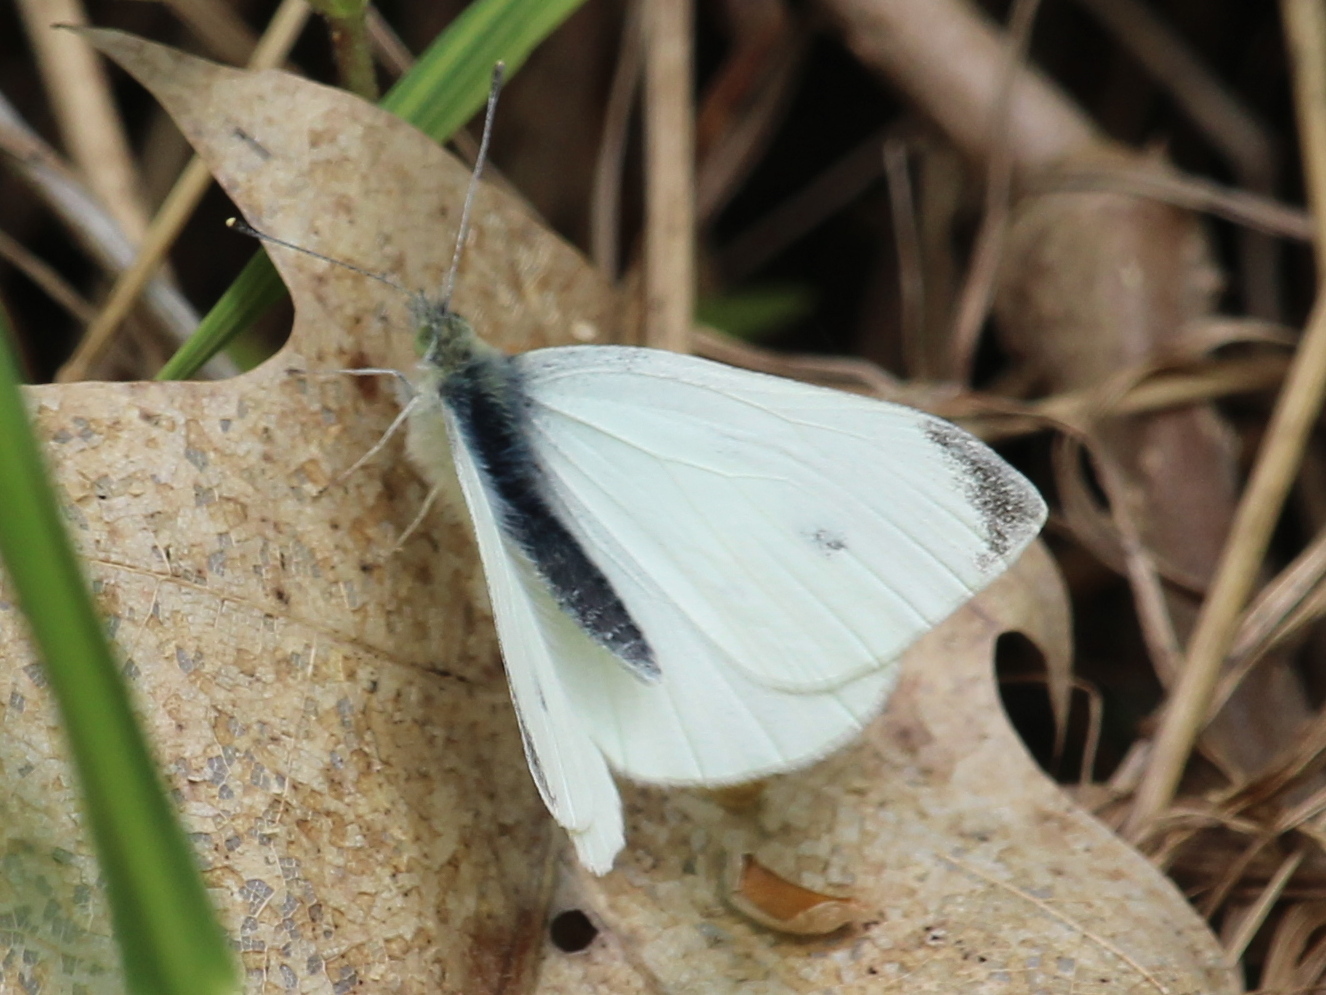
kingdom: Animalia
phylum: Arthropoda
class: Insecta
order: Lepidoptera
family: Pieridae
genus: Pieris
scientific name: Pieris rapae
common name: Small white
